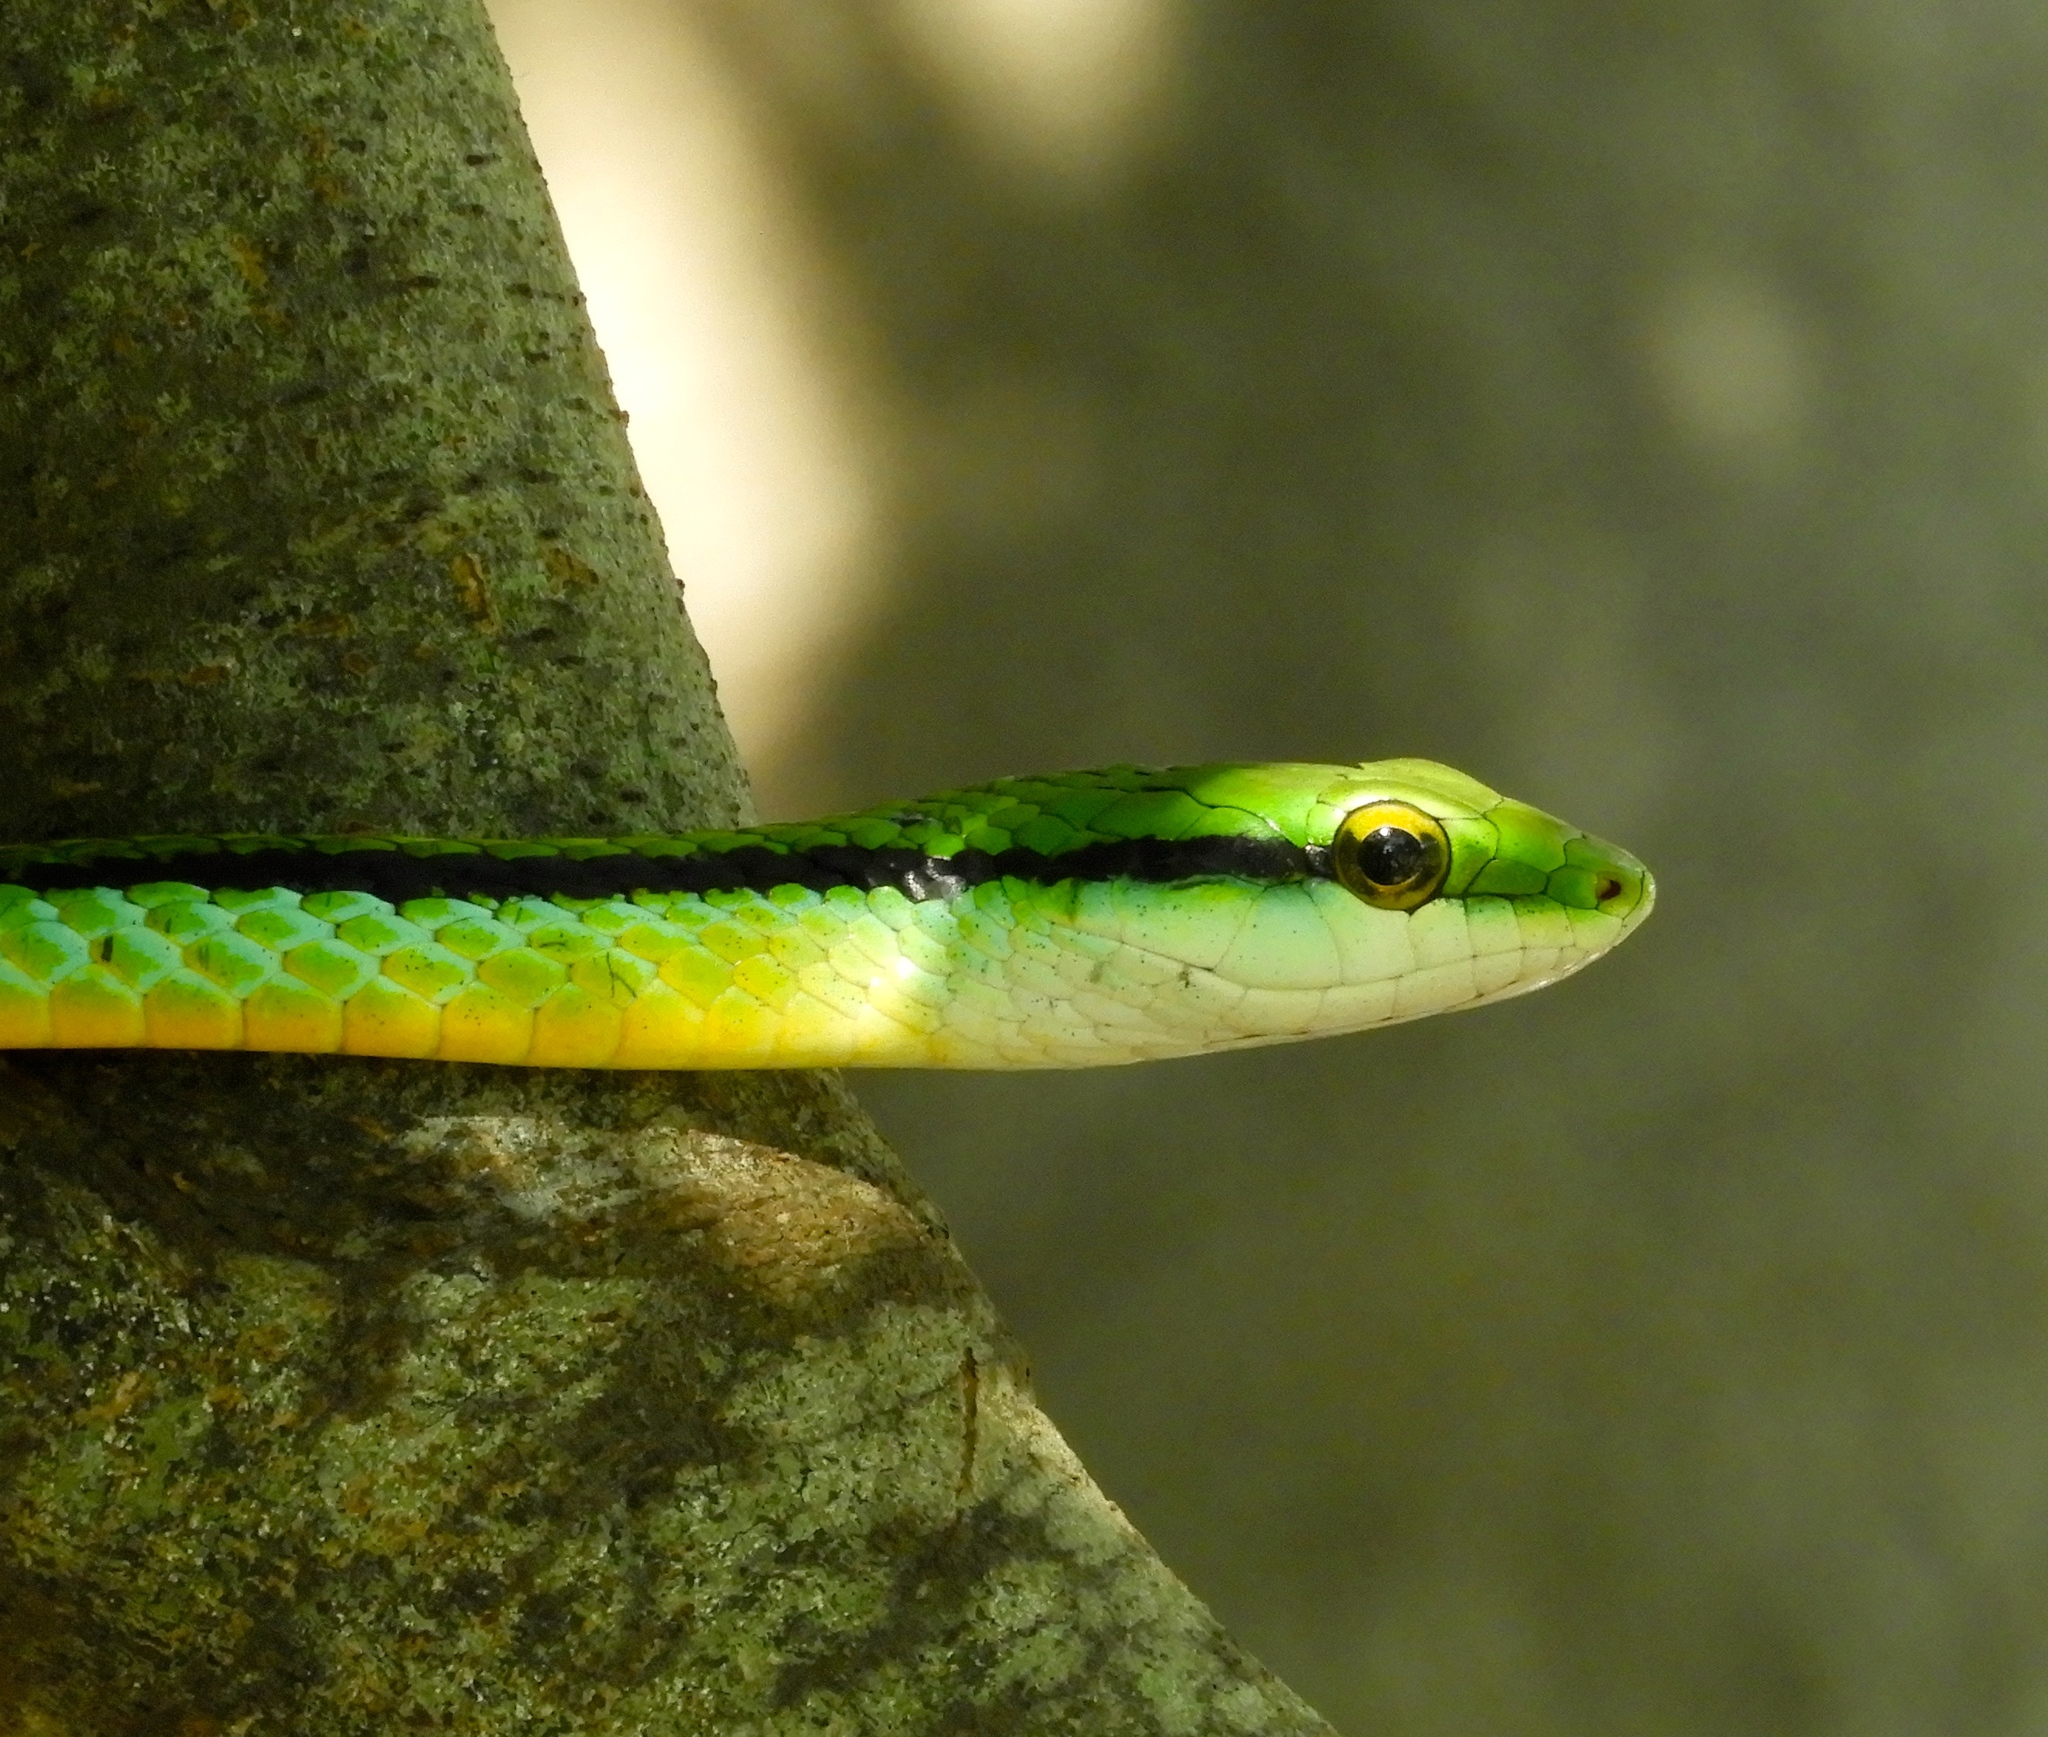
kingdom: Animalia
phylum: Chordata
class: Squamata
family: Colubridae
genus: Leptophis
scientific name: Leptophis diplotropis
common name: Pacific coast parrot snake
